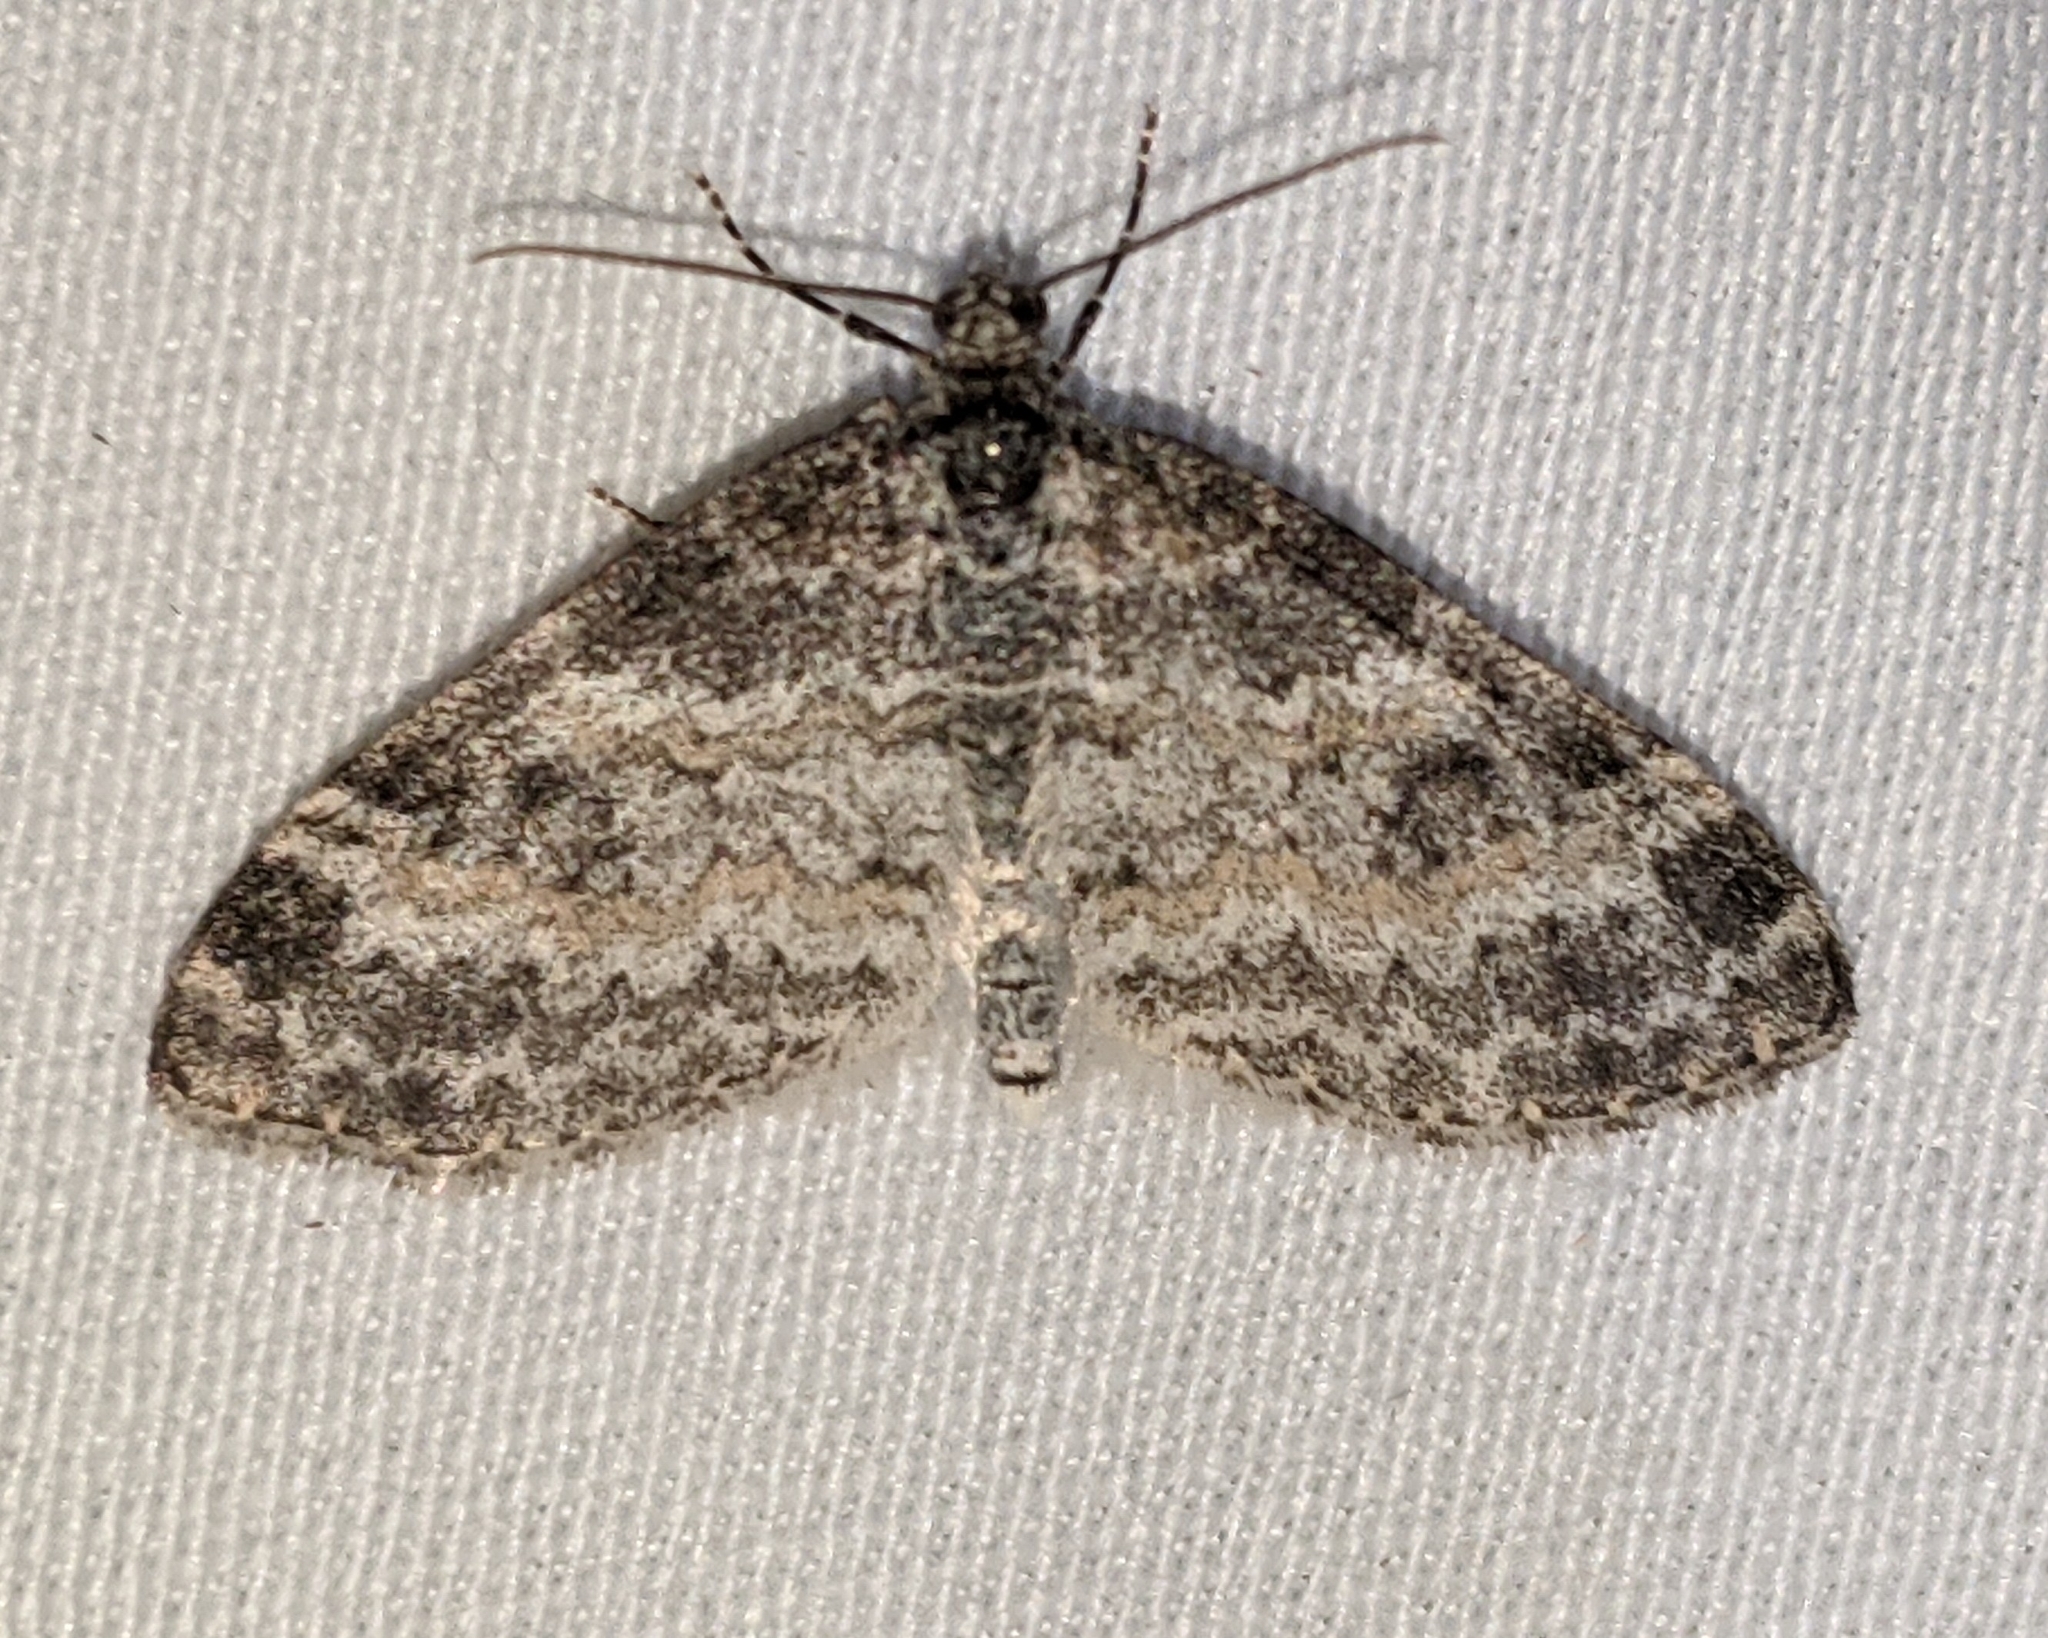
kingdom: Animalia
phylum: Arthropoda
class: Insecta
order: Lepidoptera
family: Geometridae
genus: Lobophora
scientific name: Lobophora nivigerata
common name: Powdered bigwing
